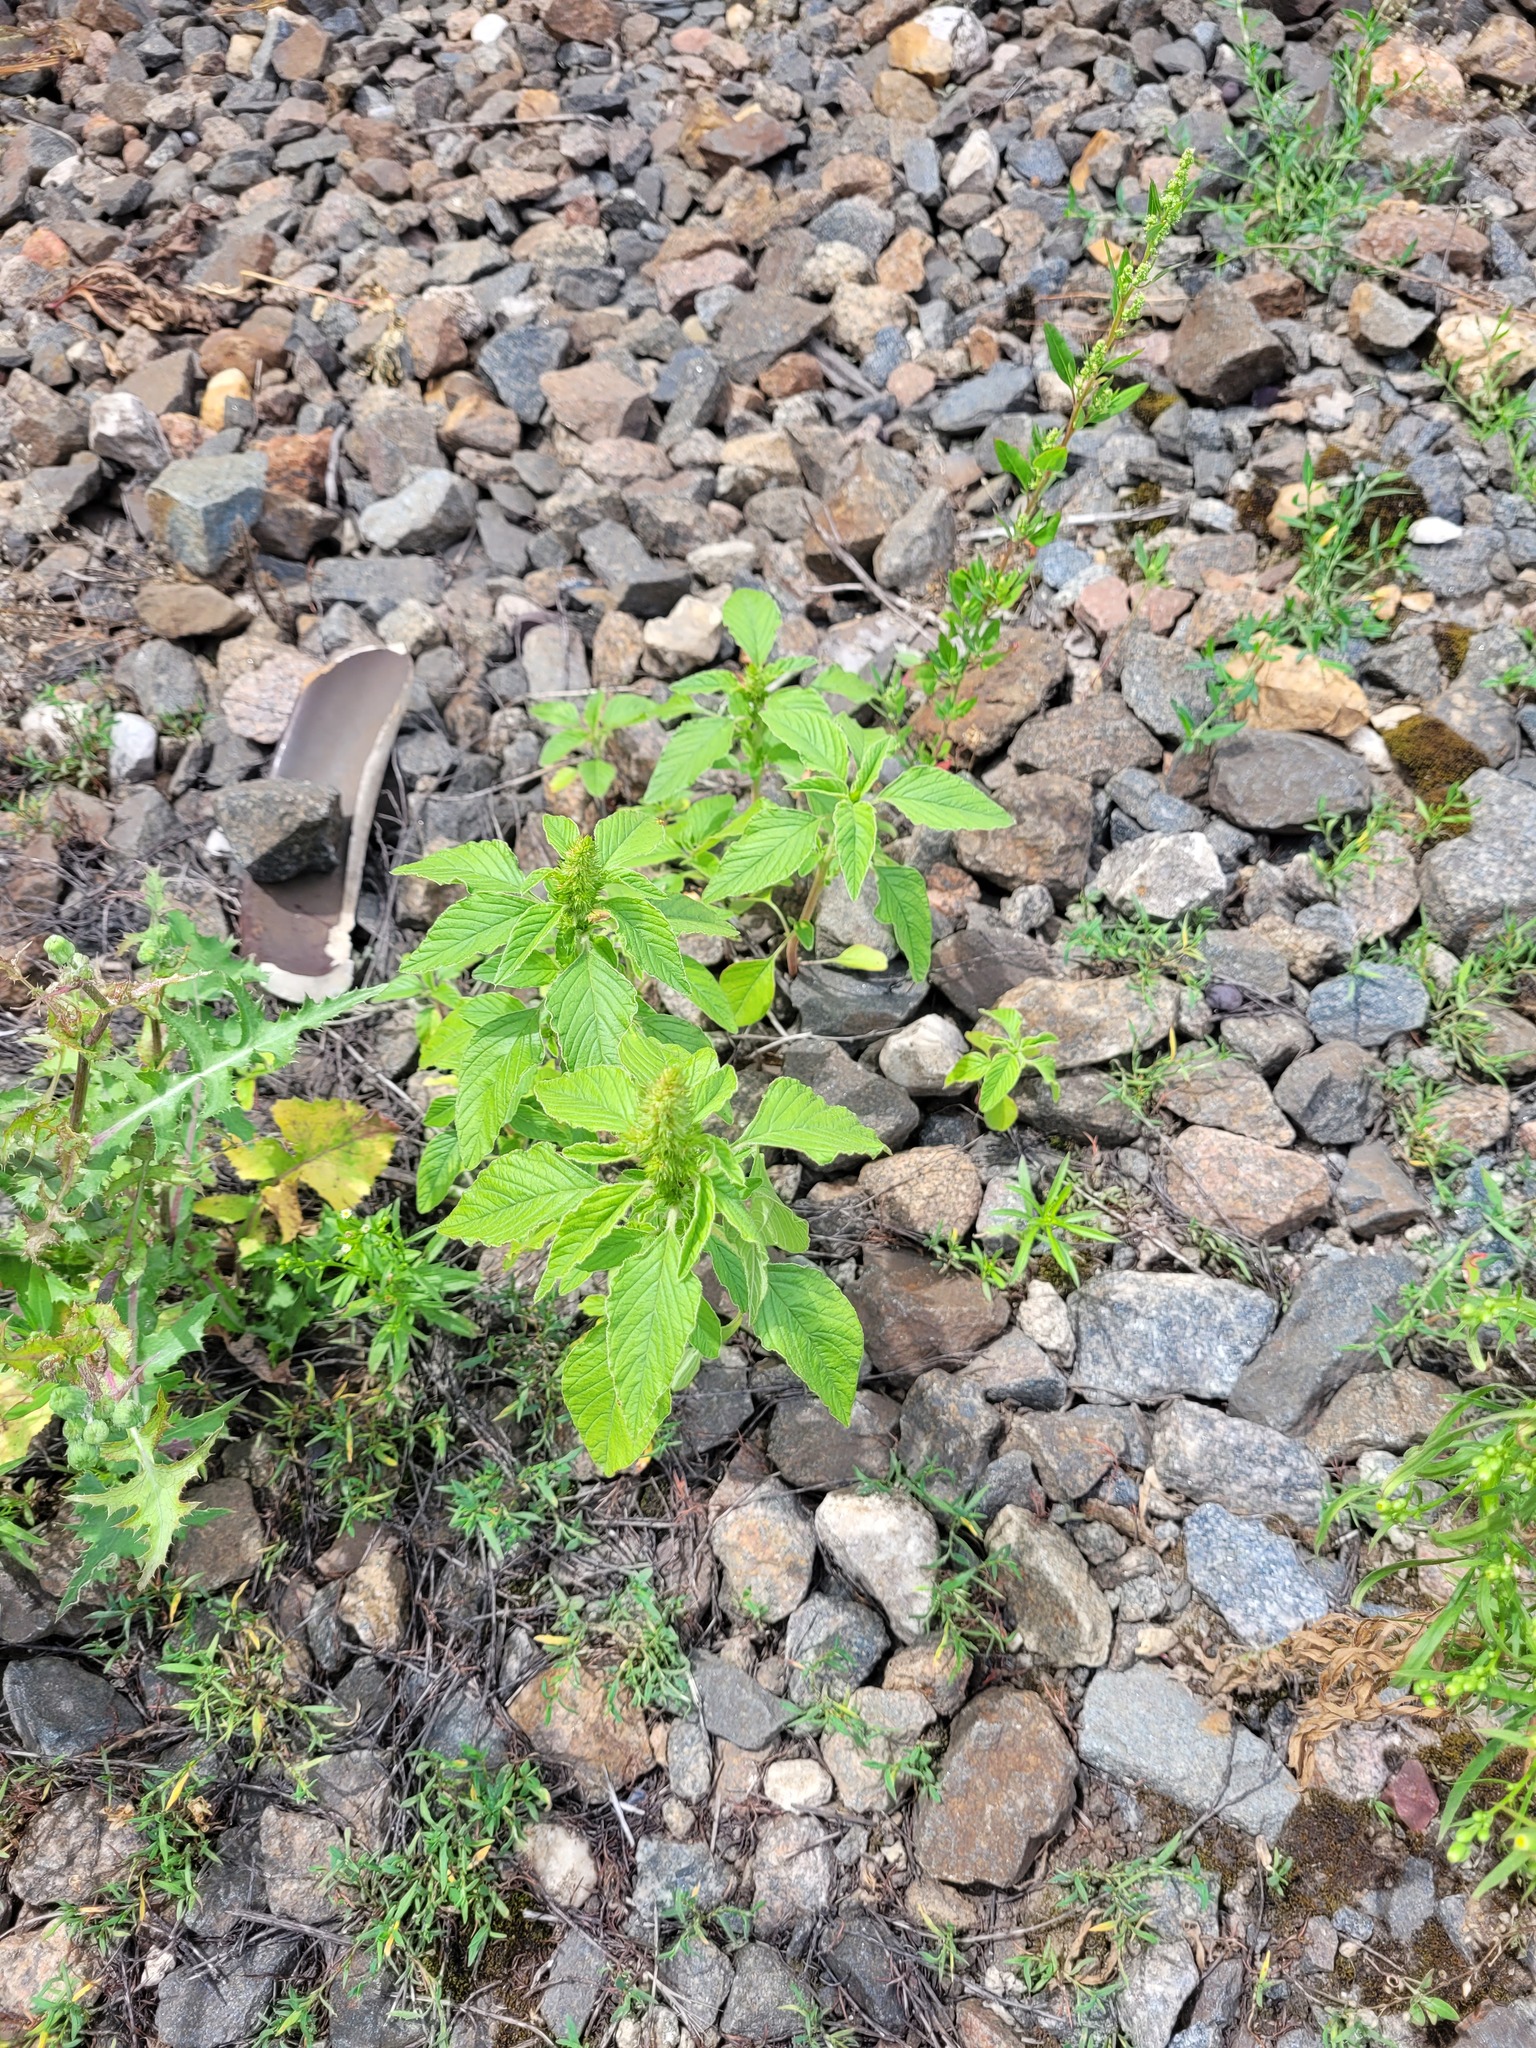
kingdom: Plantae
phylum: Tracheophyta
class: Magnoliopsida
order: Caryophyllales
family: Amaranthaceae
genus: Amaranthus
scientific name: Amaranthus retroflexus
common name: Redroot amaranth
